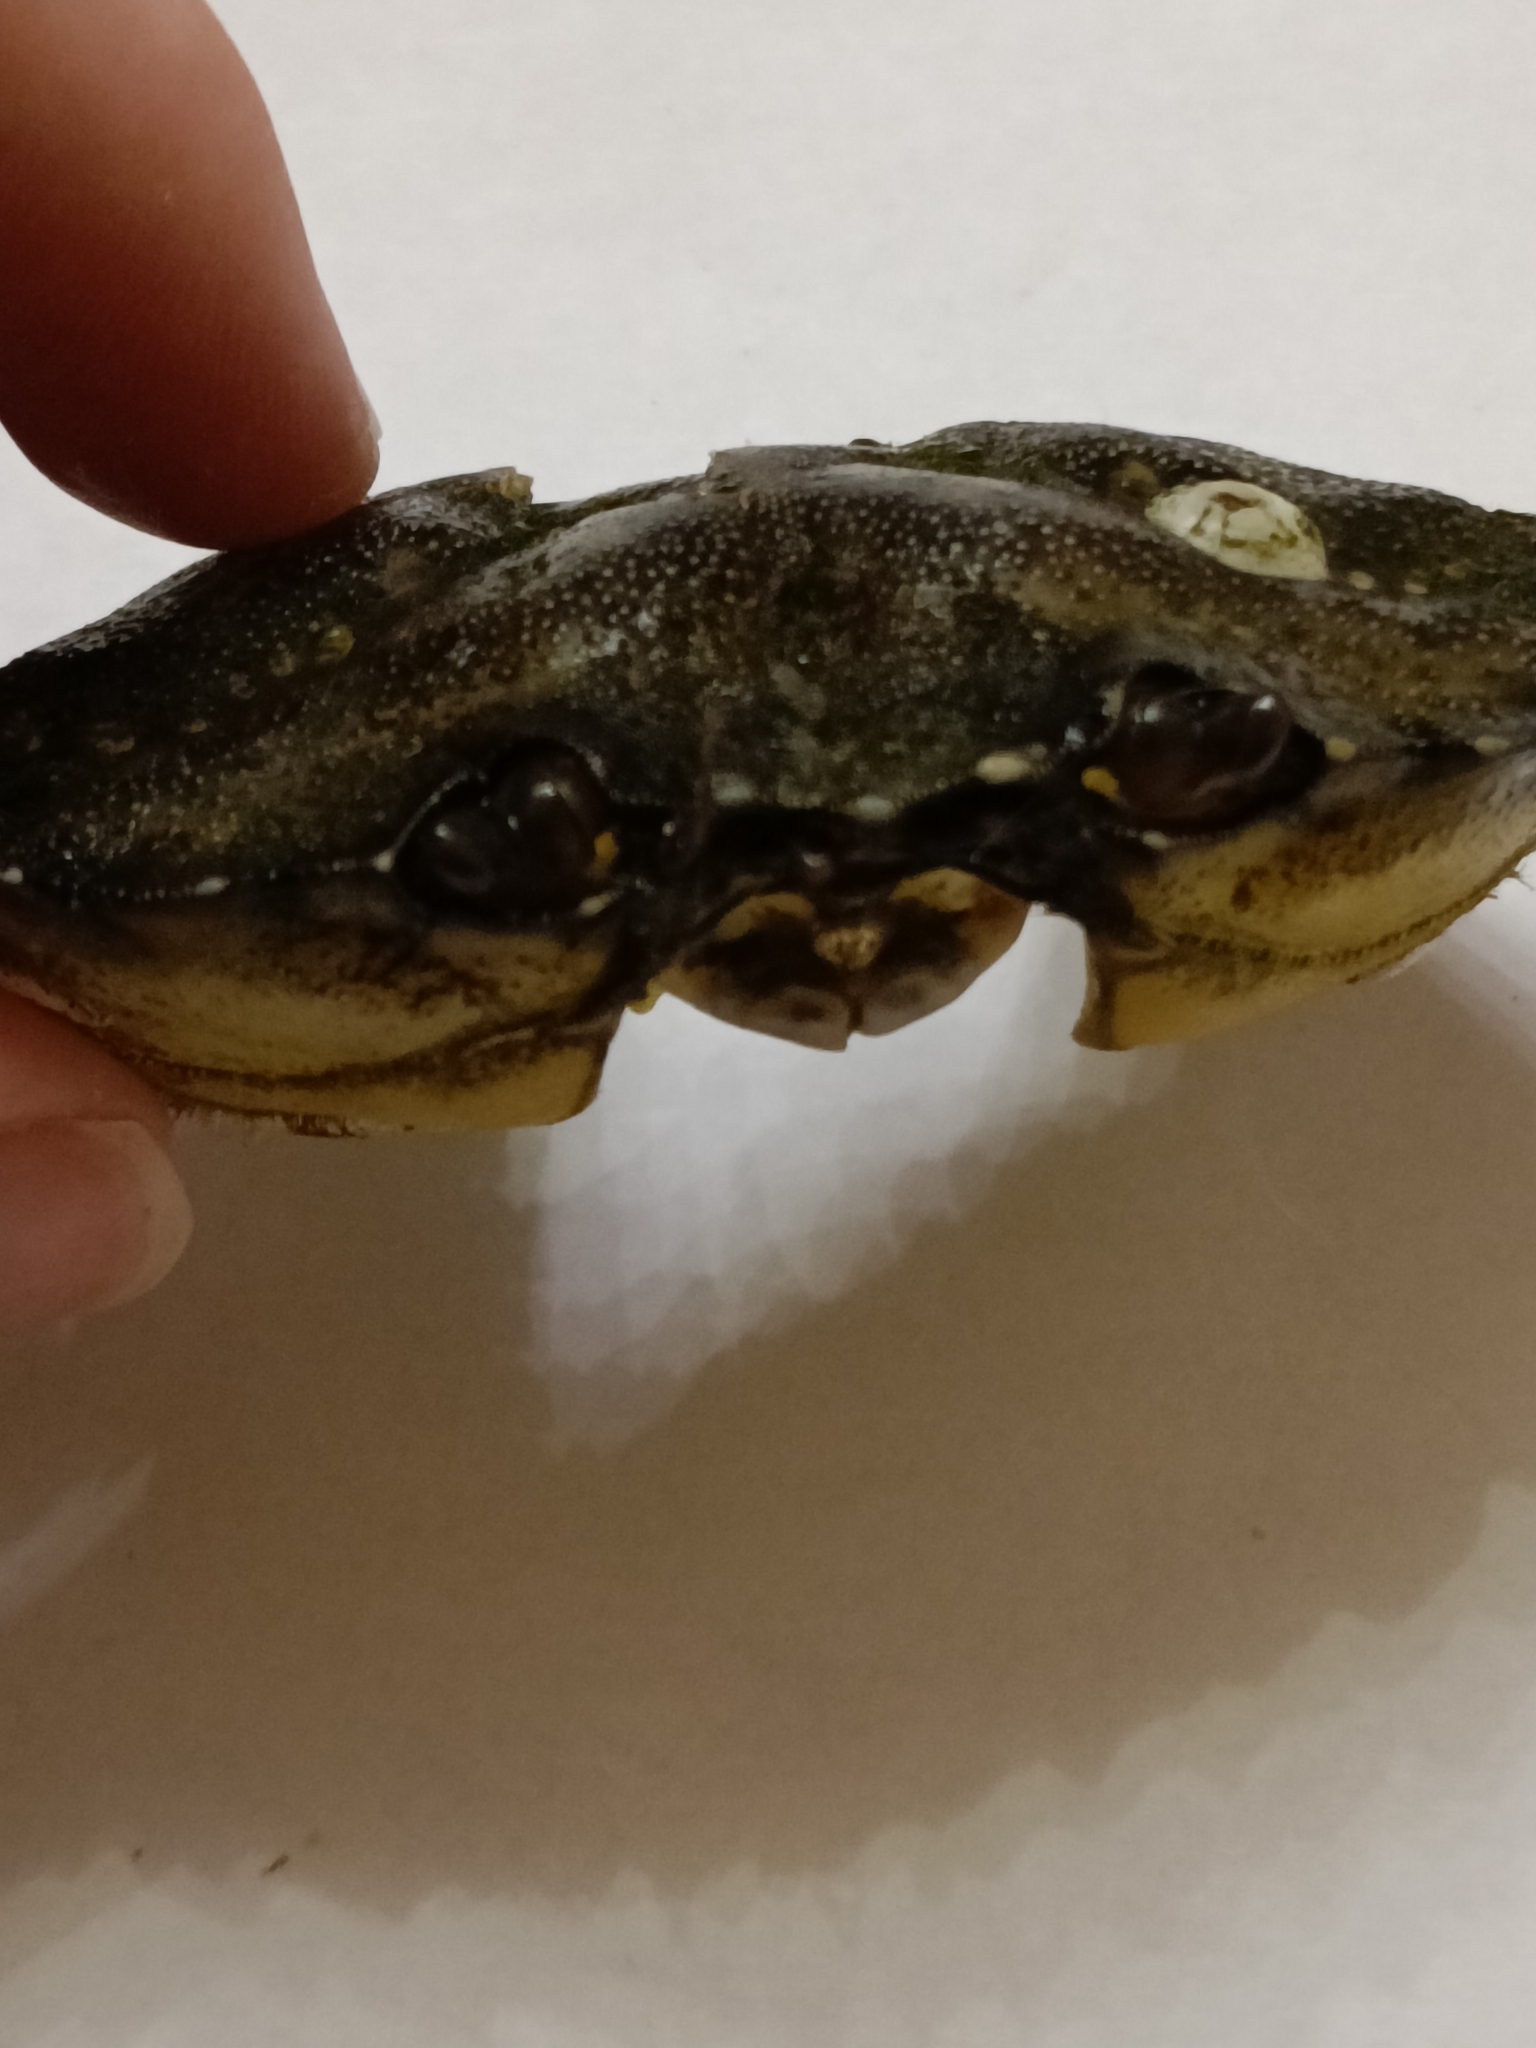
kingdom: Animalia
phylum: Arthropoda
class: Malacostraca
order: Decapoda
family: Carcinidae
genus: Carcinus
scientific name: Carcinus maenas
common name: European green crab
